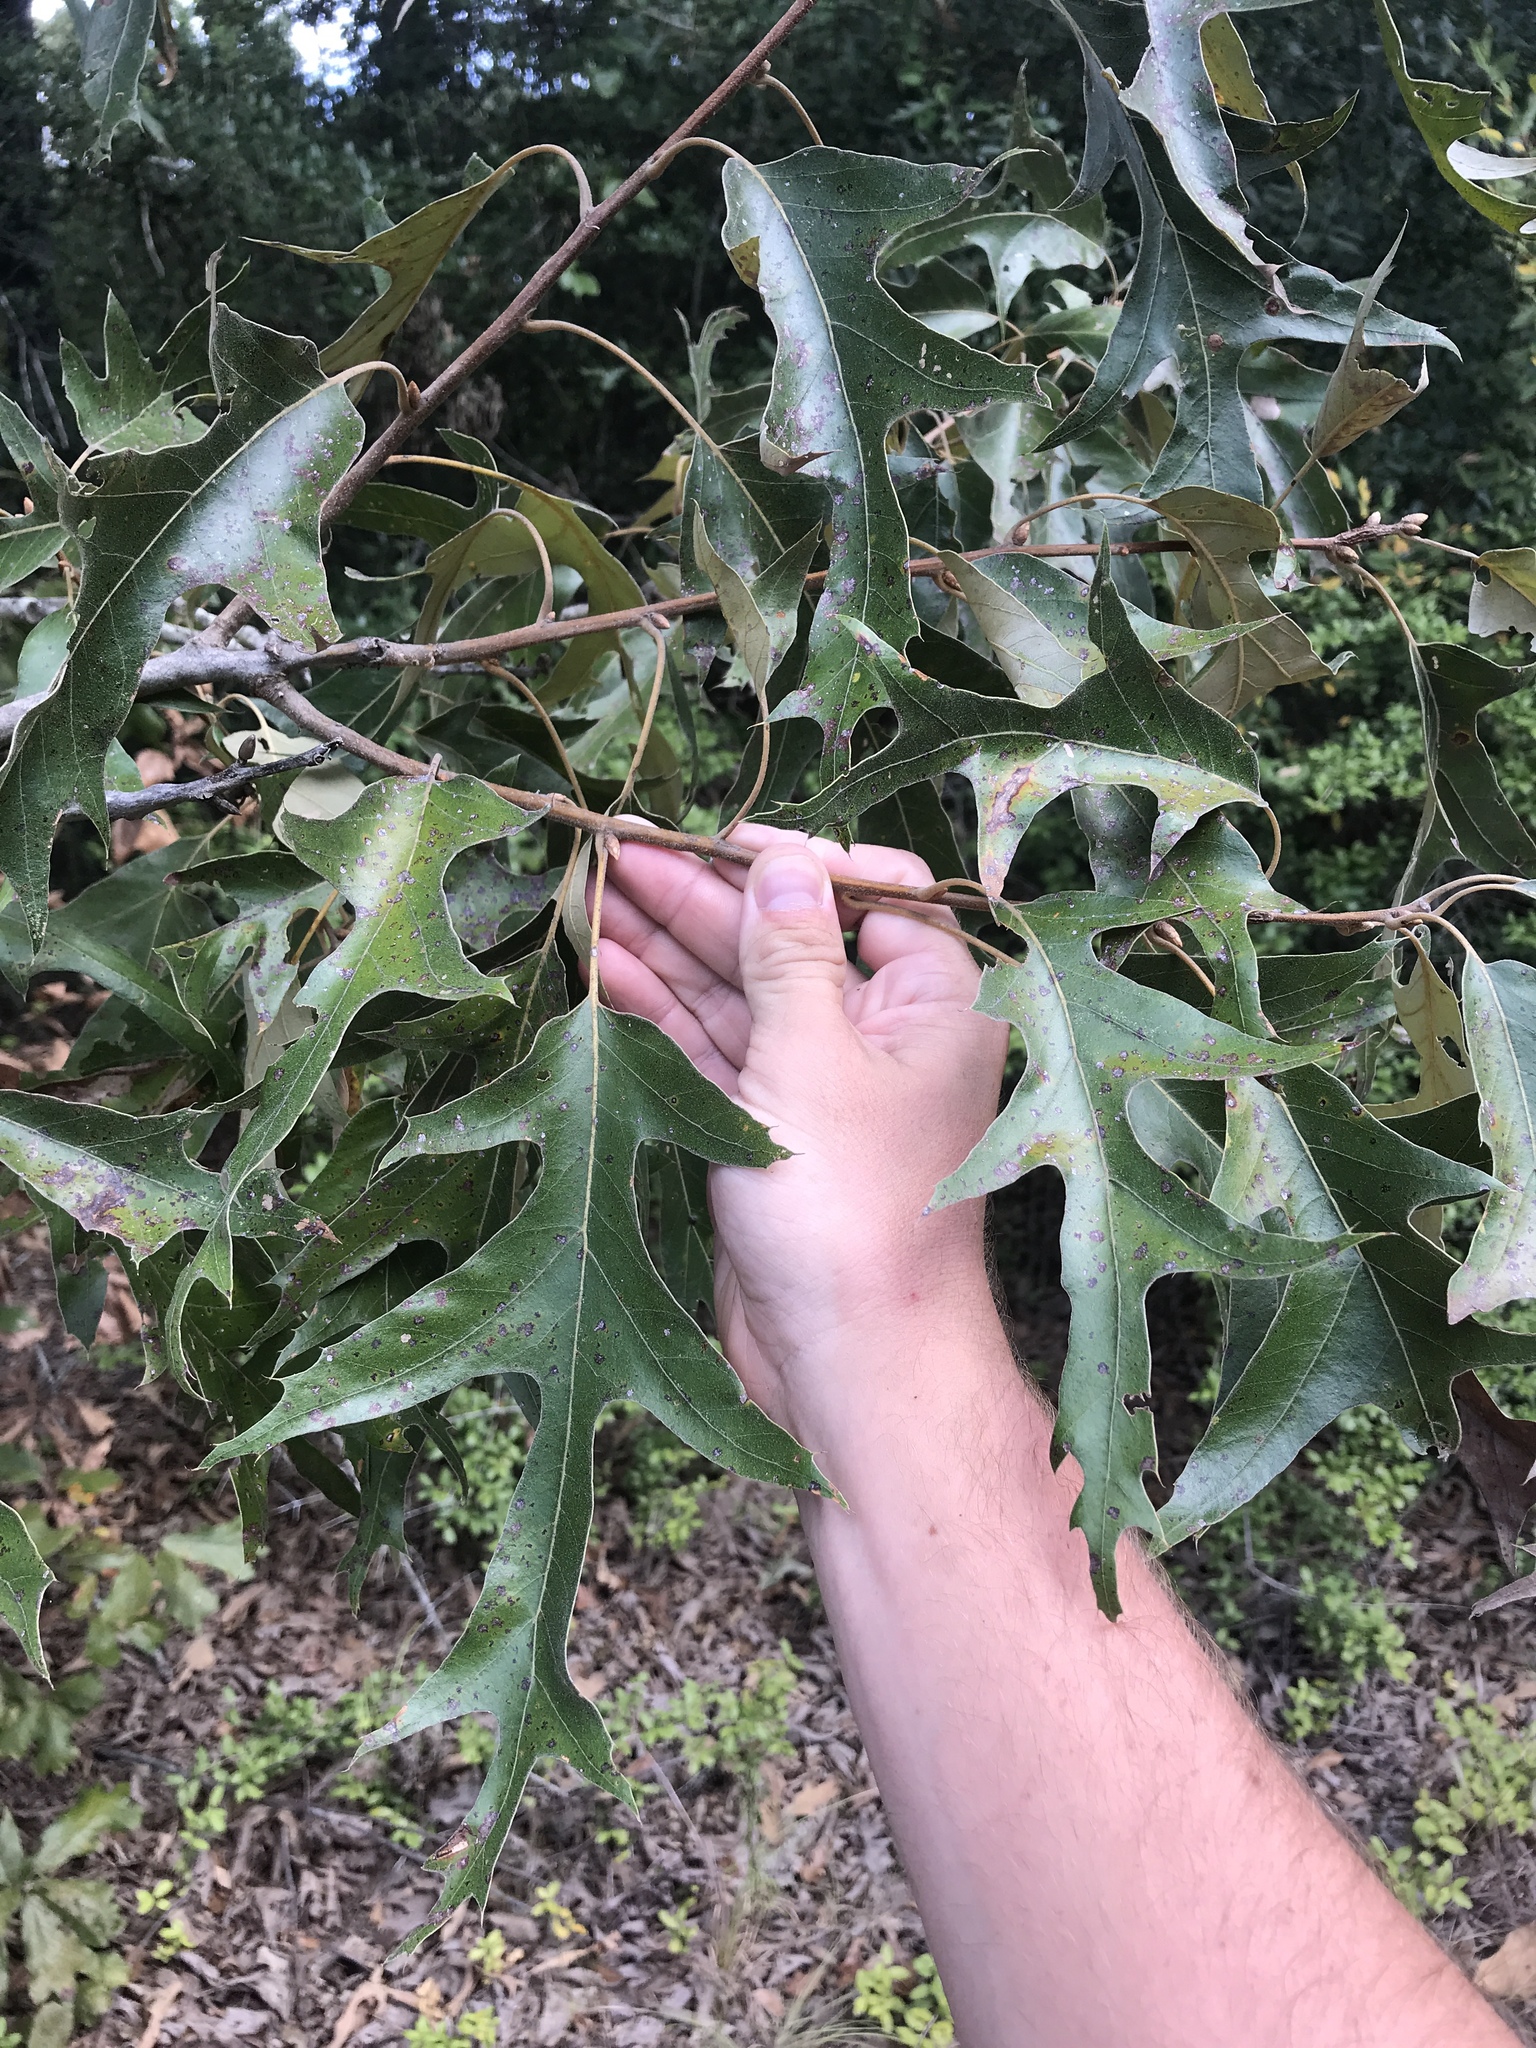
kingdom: Plantae
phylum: Tracheophyta
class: Magnoliopsida
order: Fagales
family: Fagaceae
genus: Quercus
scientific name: Quercus falcata
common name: Southern red oak
